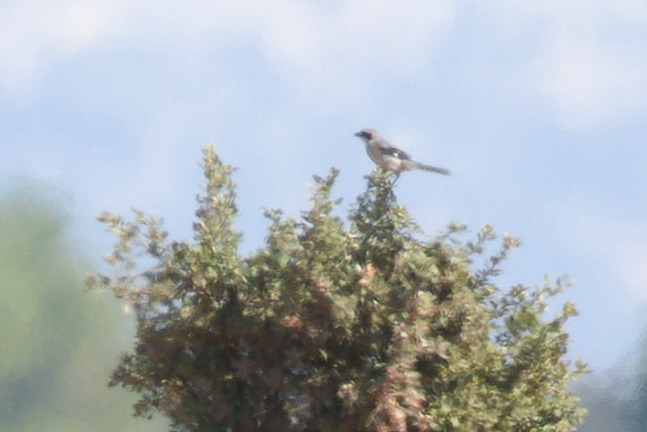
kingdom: Animalia
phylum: Chordata
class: Aves
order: Passeriformes
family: Laniidae
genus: Lanius
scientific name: Lanius meridionalis
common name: Iberian grey shrike
